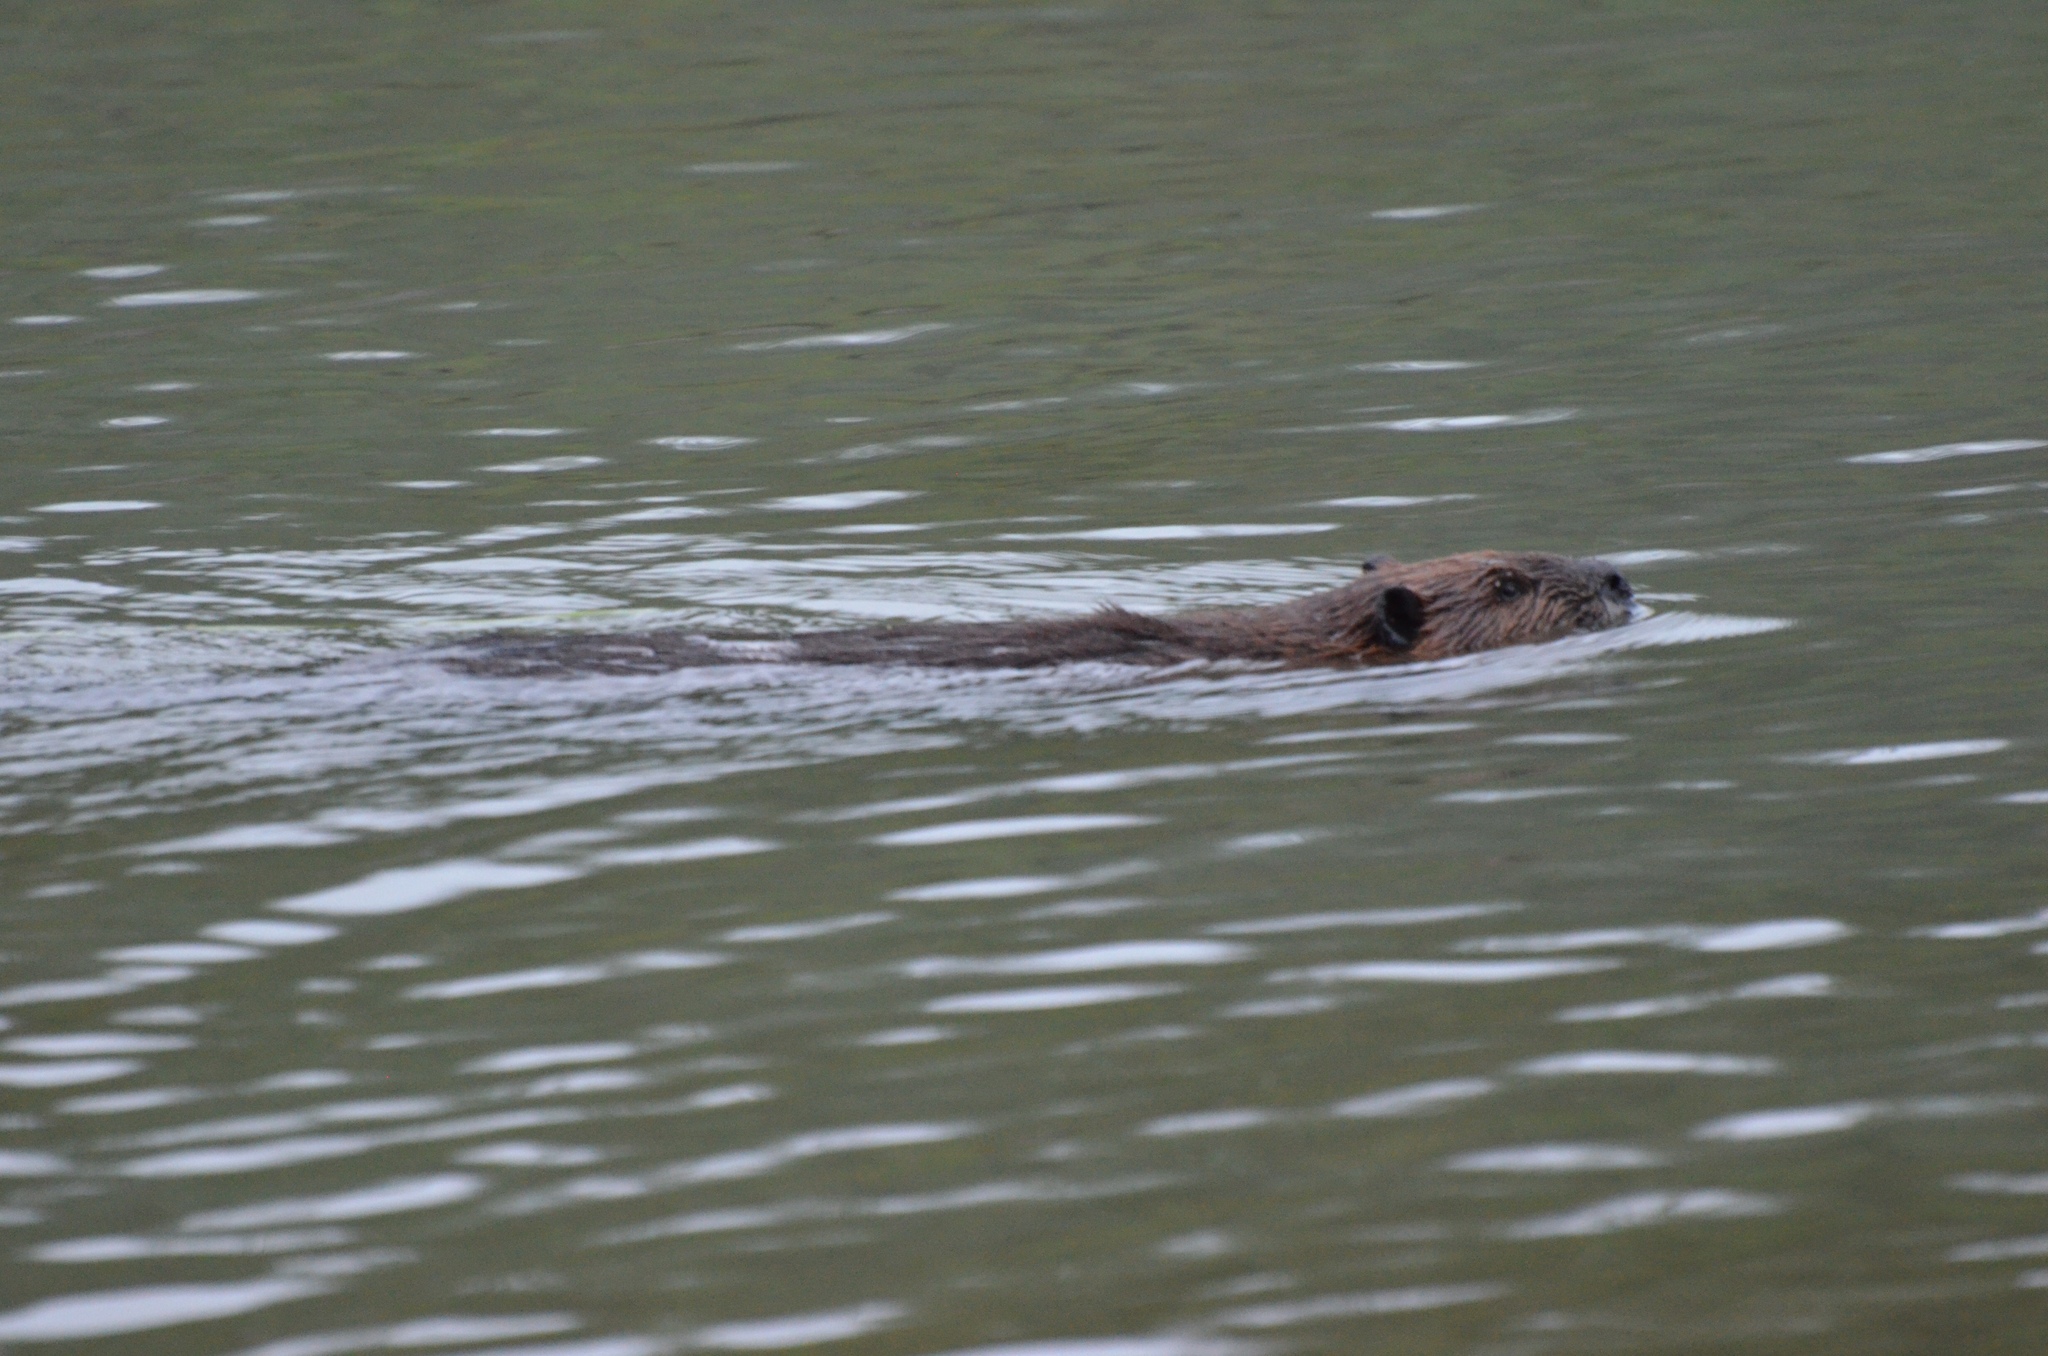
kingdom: Animalia
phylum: Chordata
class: Mammalia
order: Rodentia
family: Castoridae
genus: Castor
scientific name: Castor canadensis
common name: American beaver
